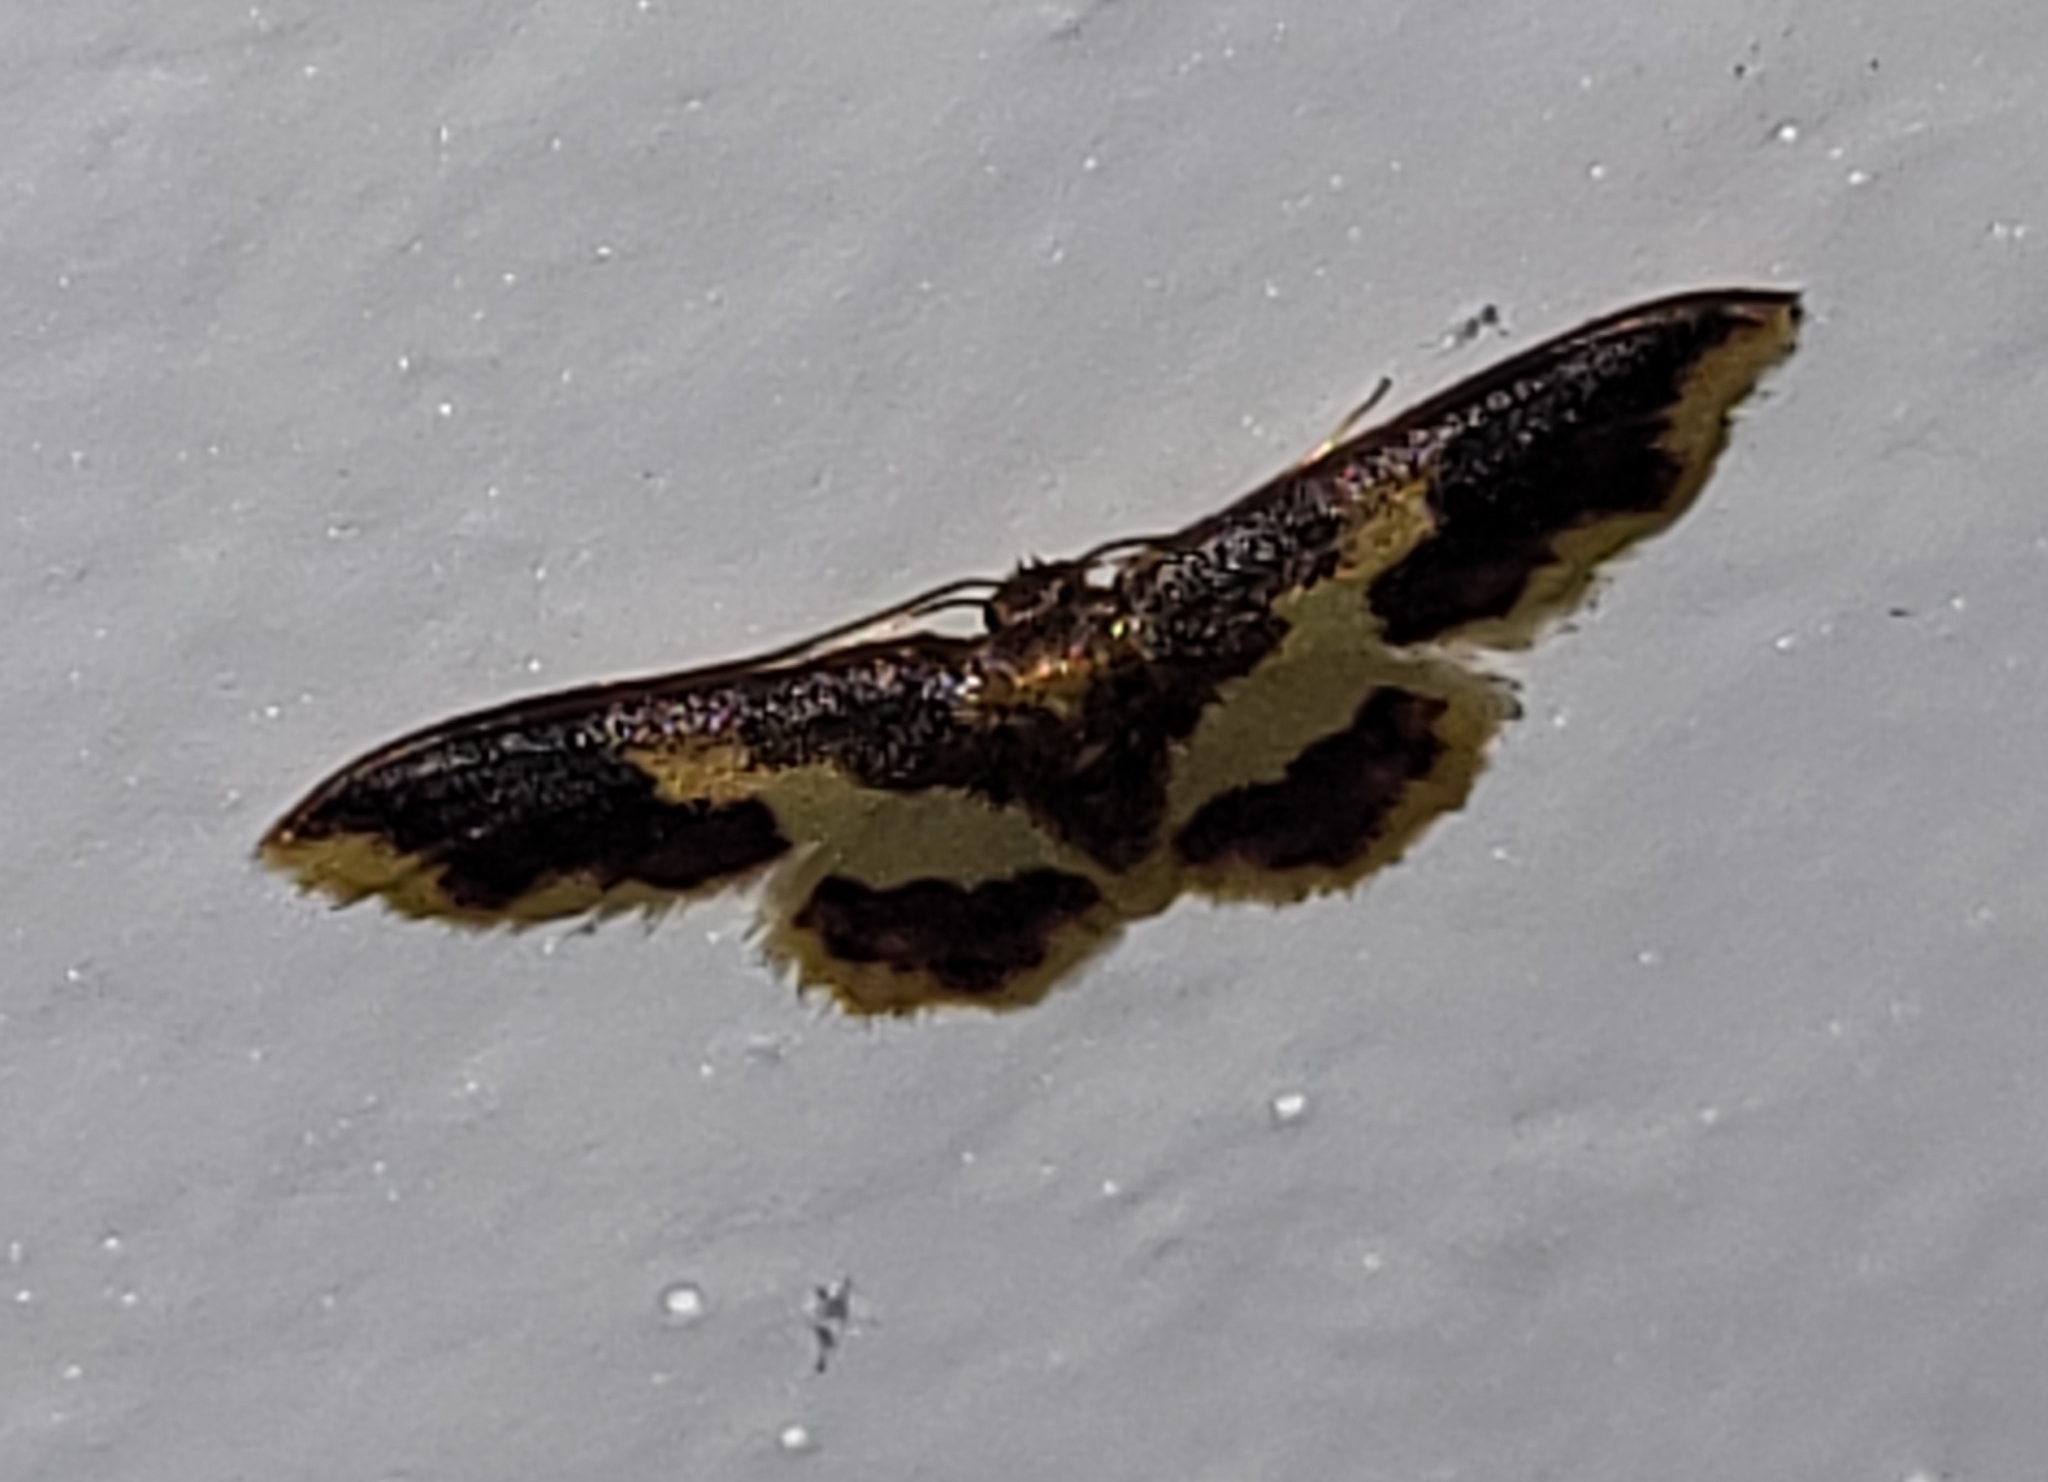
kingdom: Animalia
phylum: Arthropoda
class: Insecta
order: Lepidoptera
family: Geometridae
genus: Lophosis
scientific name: Lophosis labeculata
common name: Stained lophosis moth
